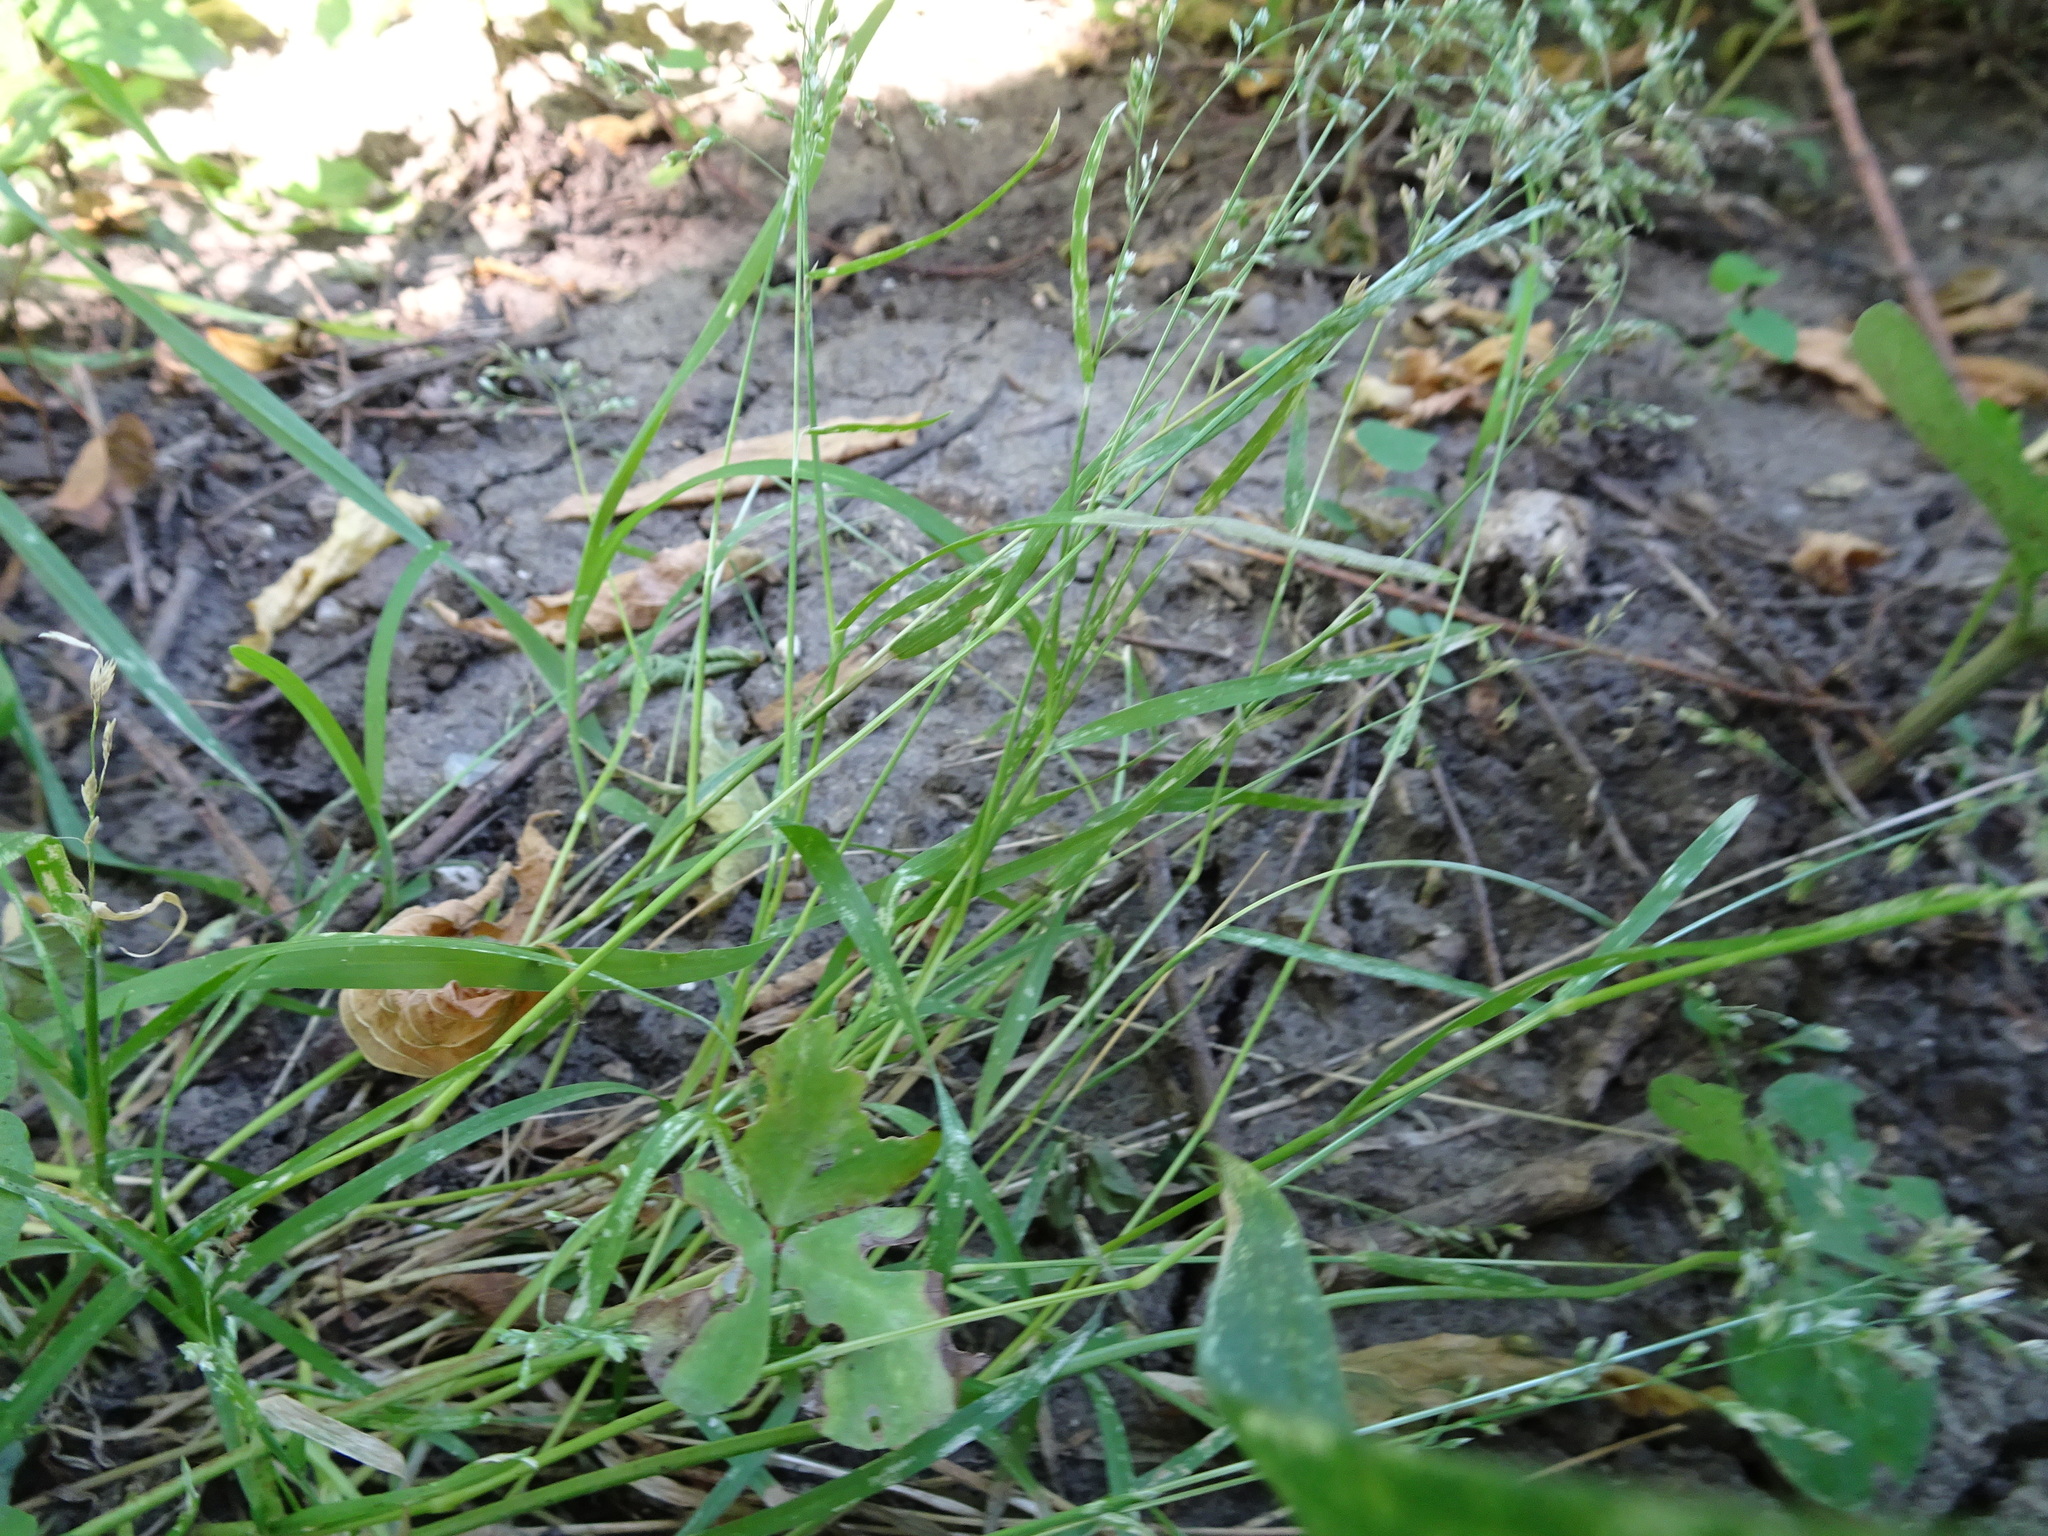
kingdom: Plantae
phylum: Tracheophyta
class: Liliopsida
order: Poales
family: Poaceae
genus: Poa
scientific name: Poa pratensis
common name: Kentucky bluegrass
